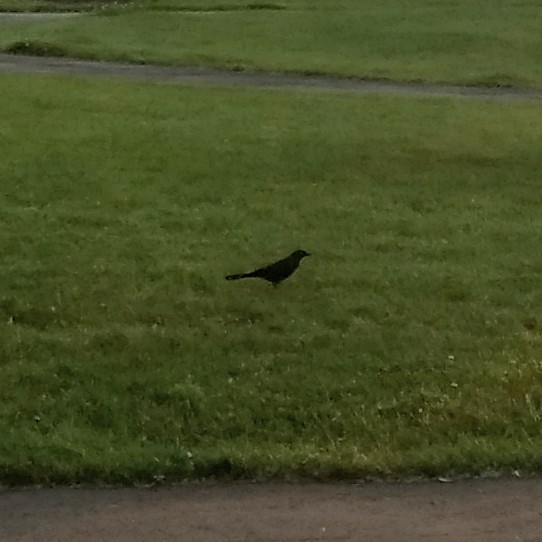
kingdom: Animalia
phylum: Chordata
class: Aves
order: Passeriformes
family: Icteridae
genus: Quiscalus
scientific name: Quiscalus quiscula
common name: Common grackle
